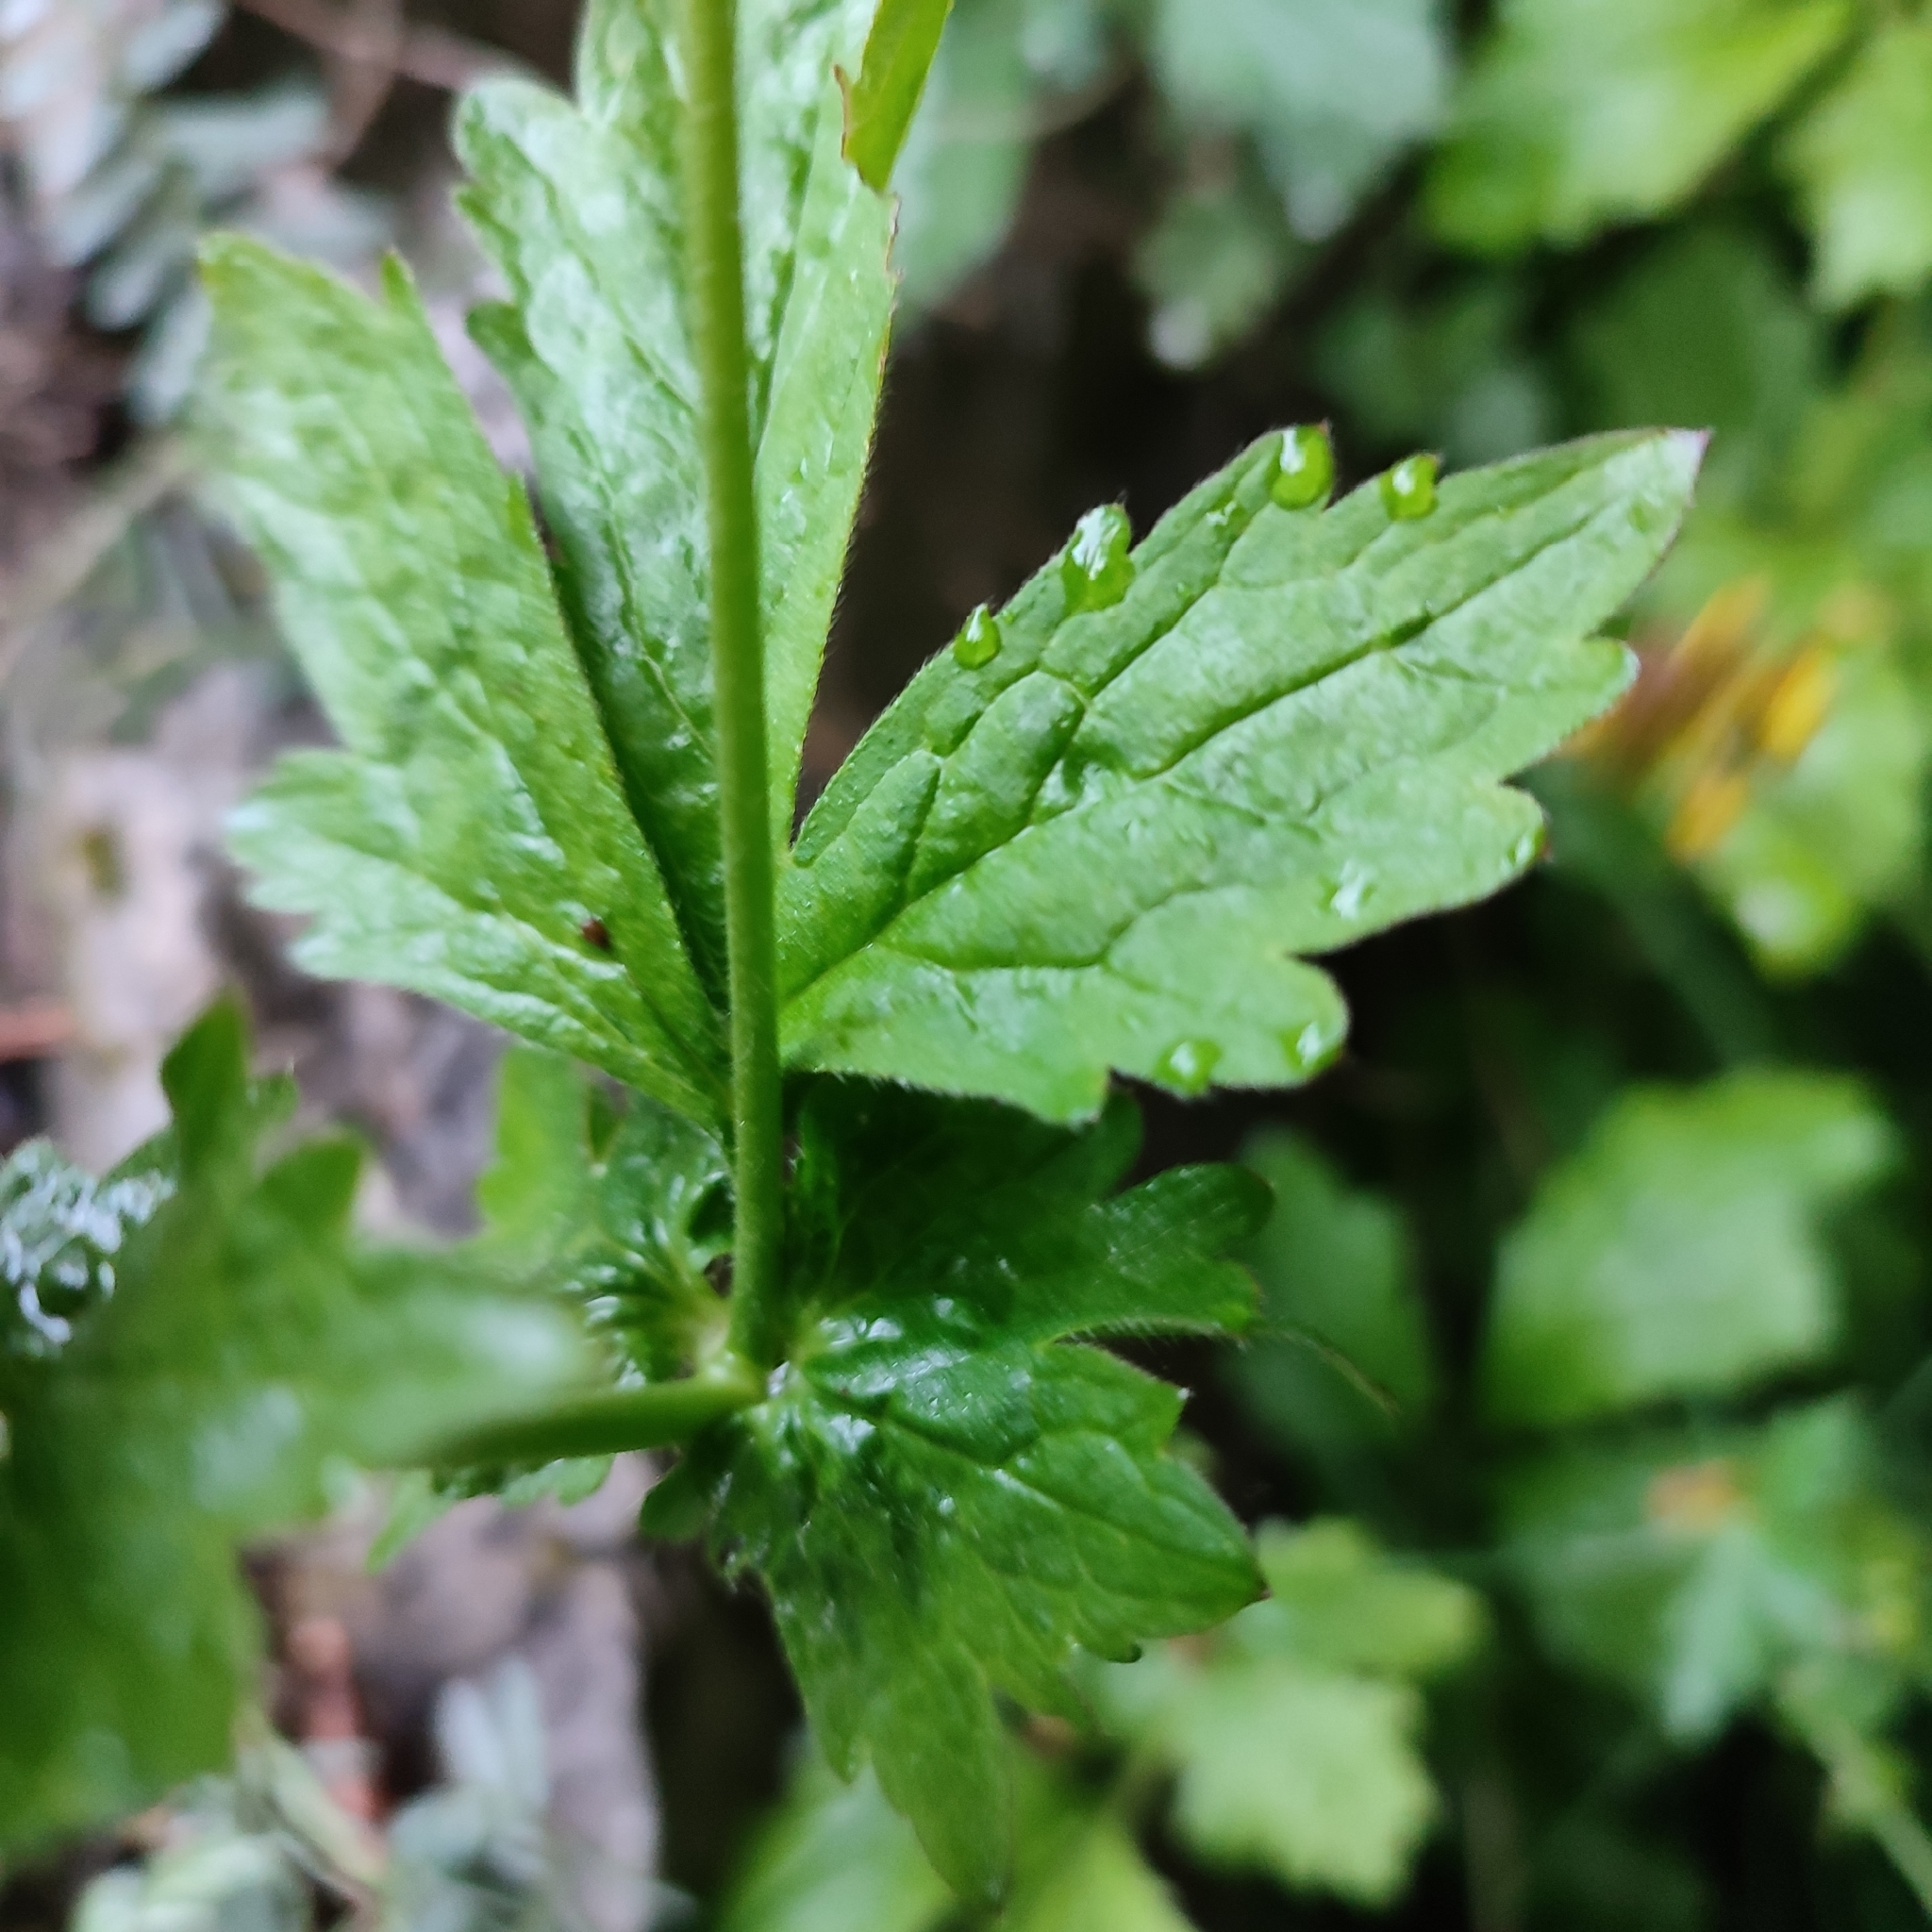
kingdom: Plantae
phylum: Tracheophyta
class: Magnoliopsida
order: Rosales
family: Rosaceae
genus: Geum
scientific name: Geum urbanum
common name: Wood avens
